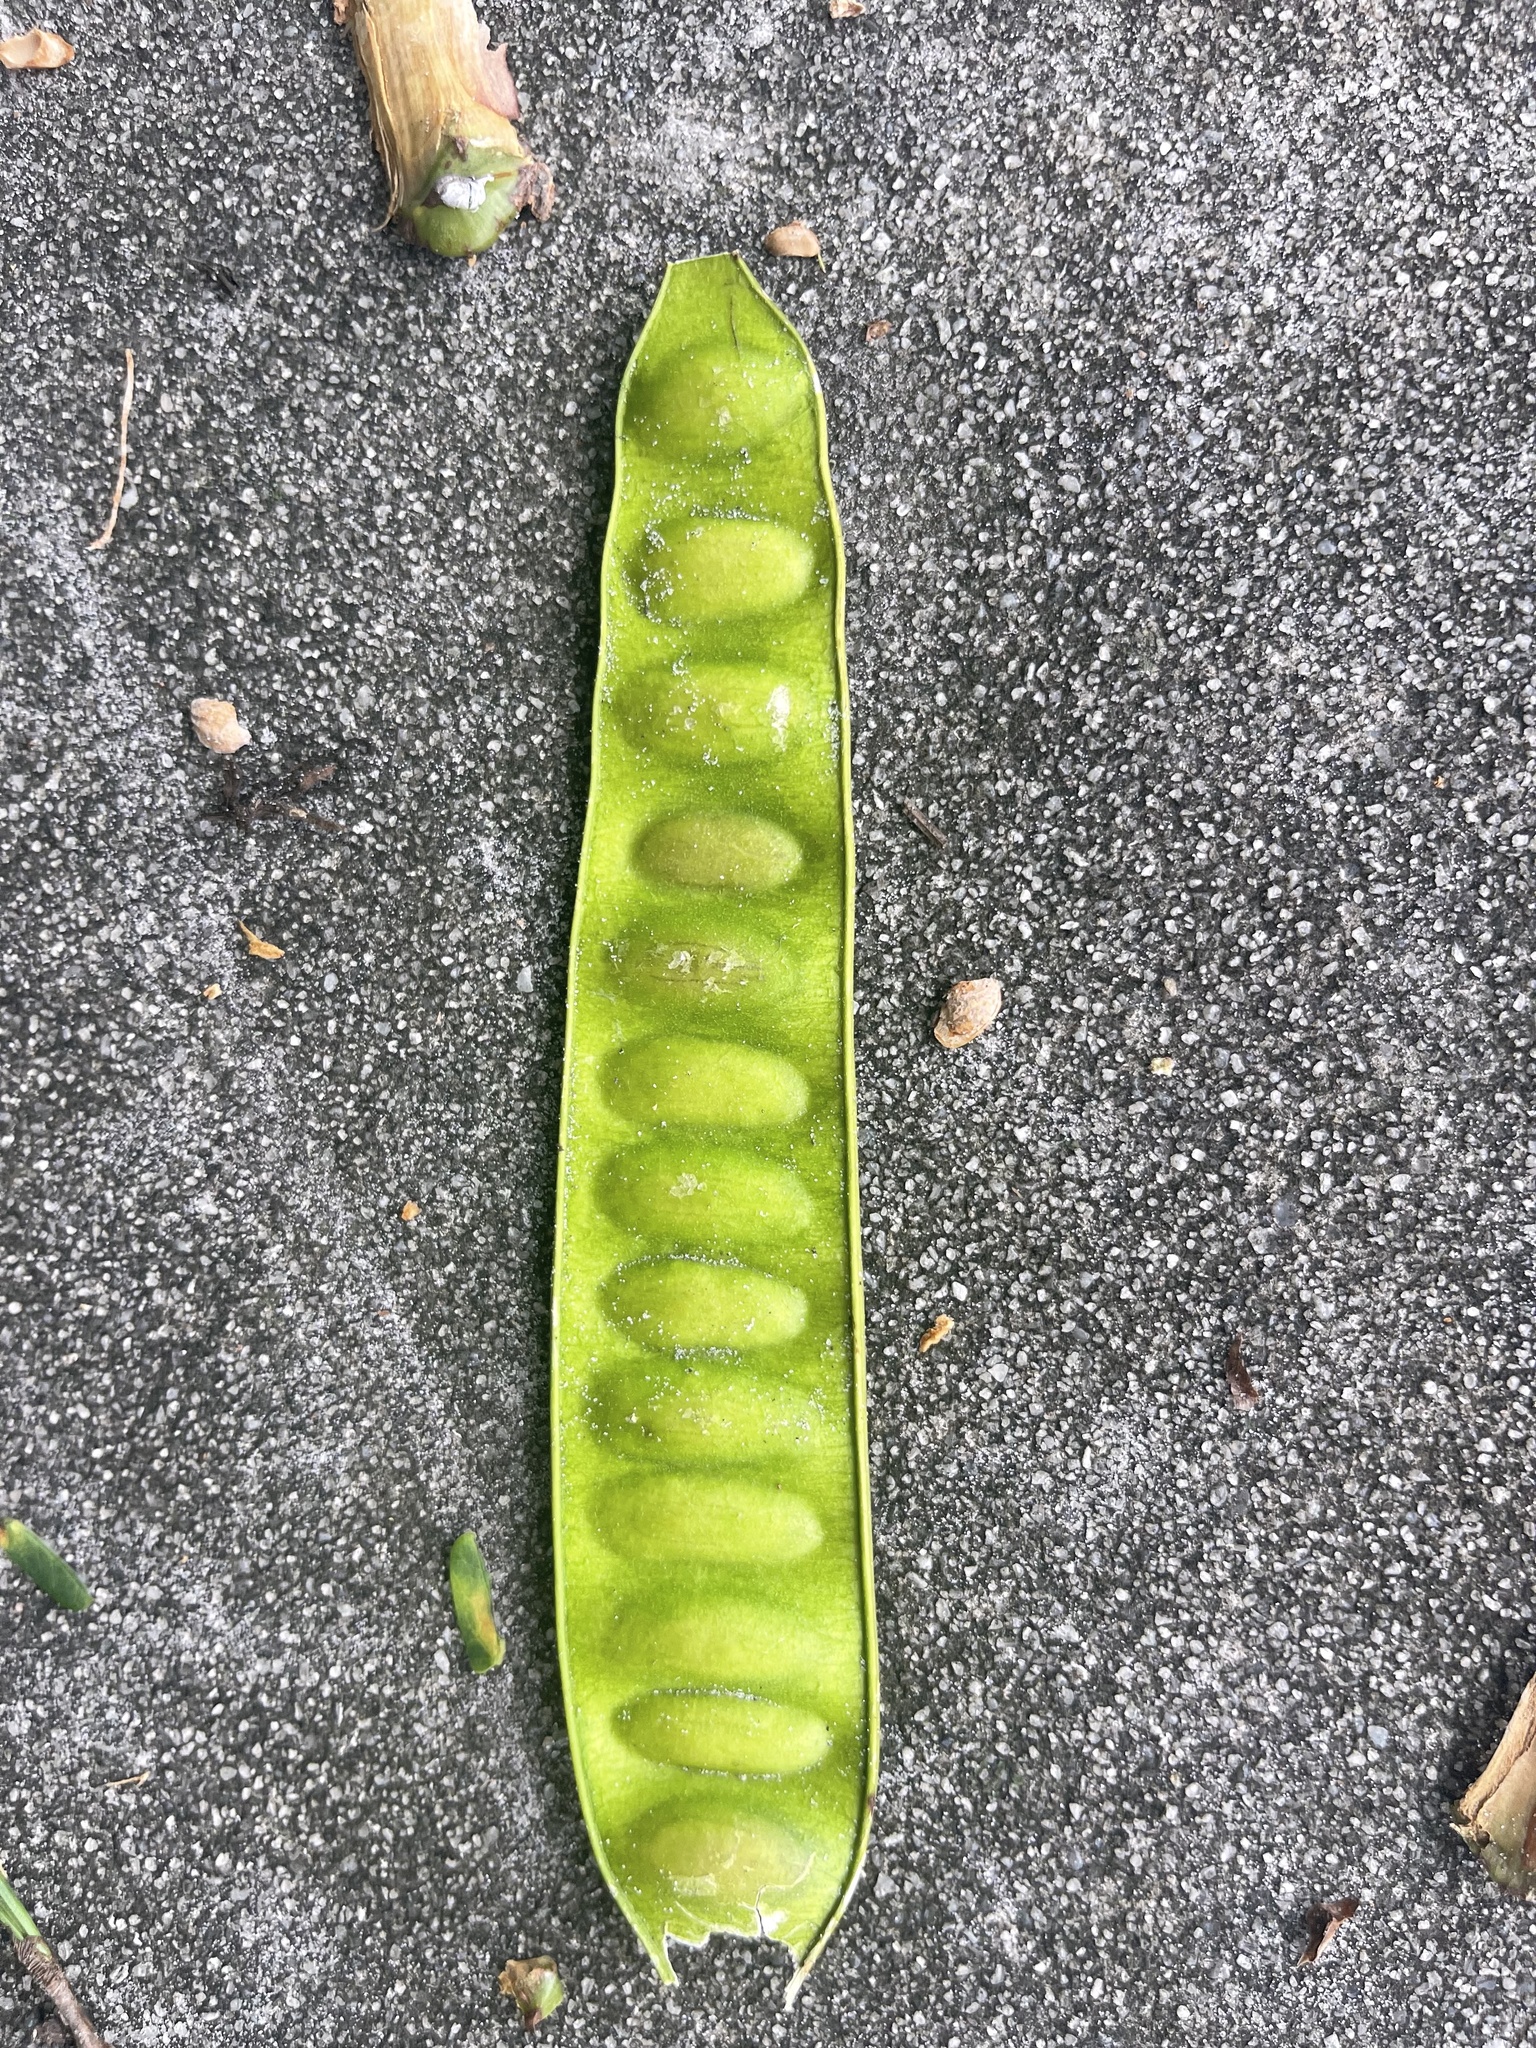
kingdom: Plantae
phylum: Tracheophyta
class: Magnoliopsida
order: Fabales
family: Fabaceae
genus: Albizia
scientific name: Albizia julibrissin
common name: Silktree
